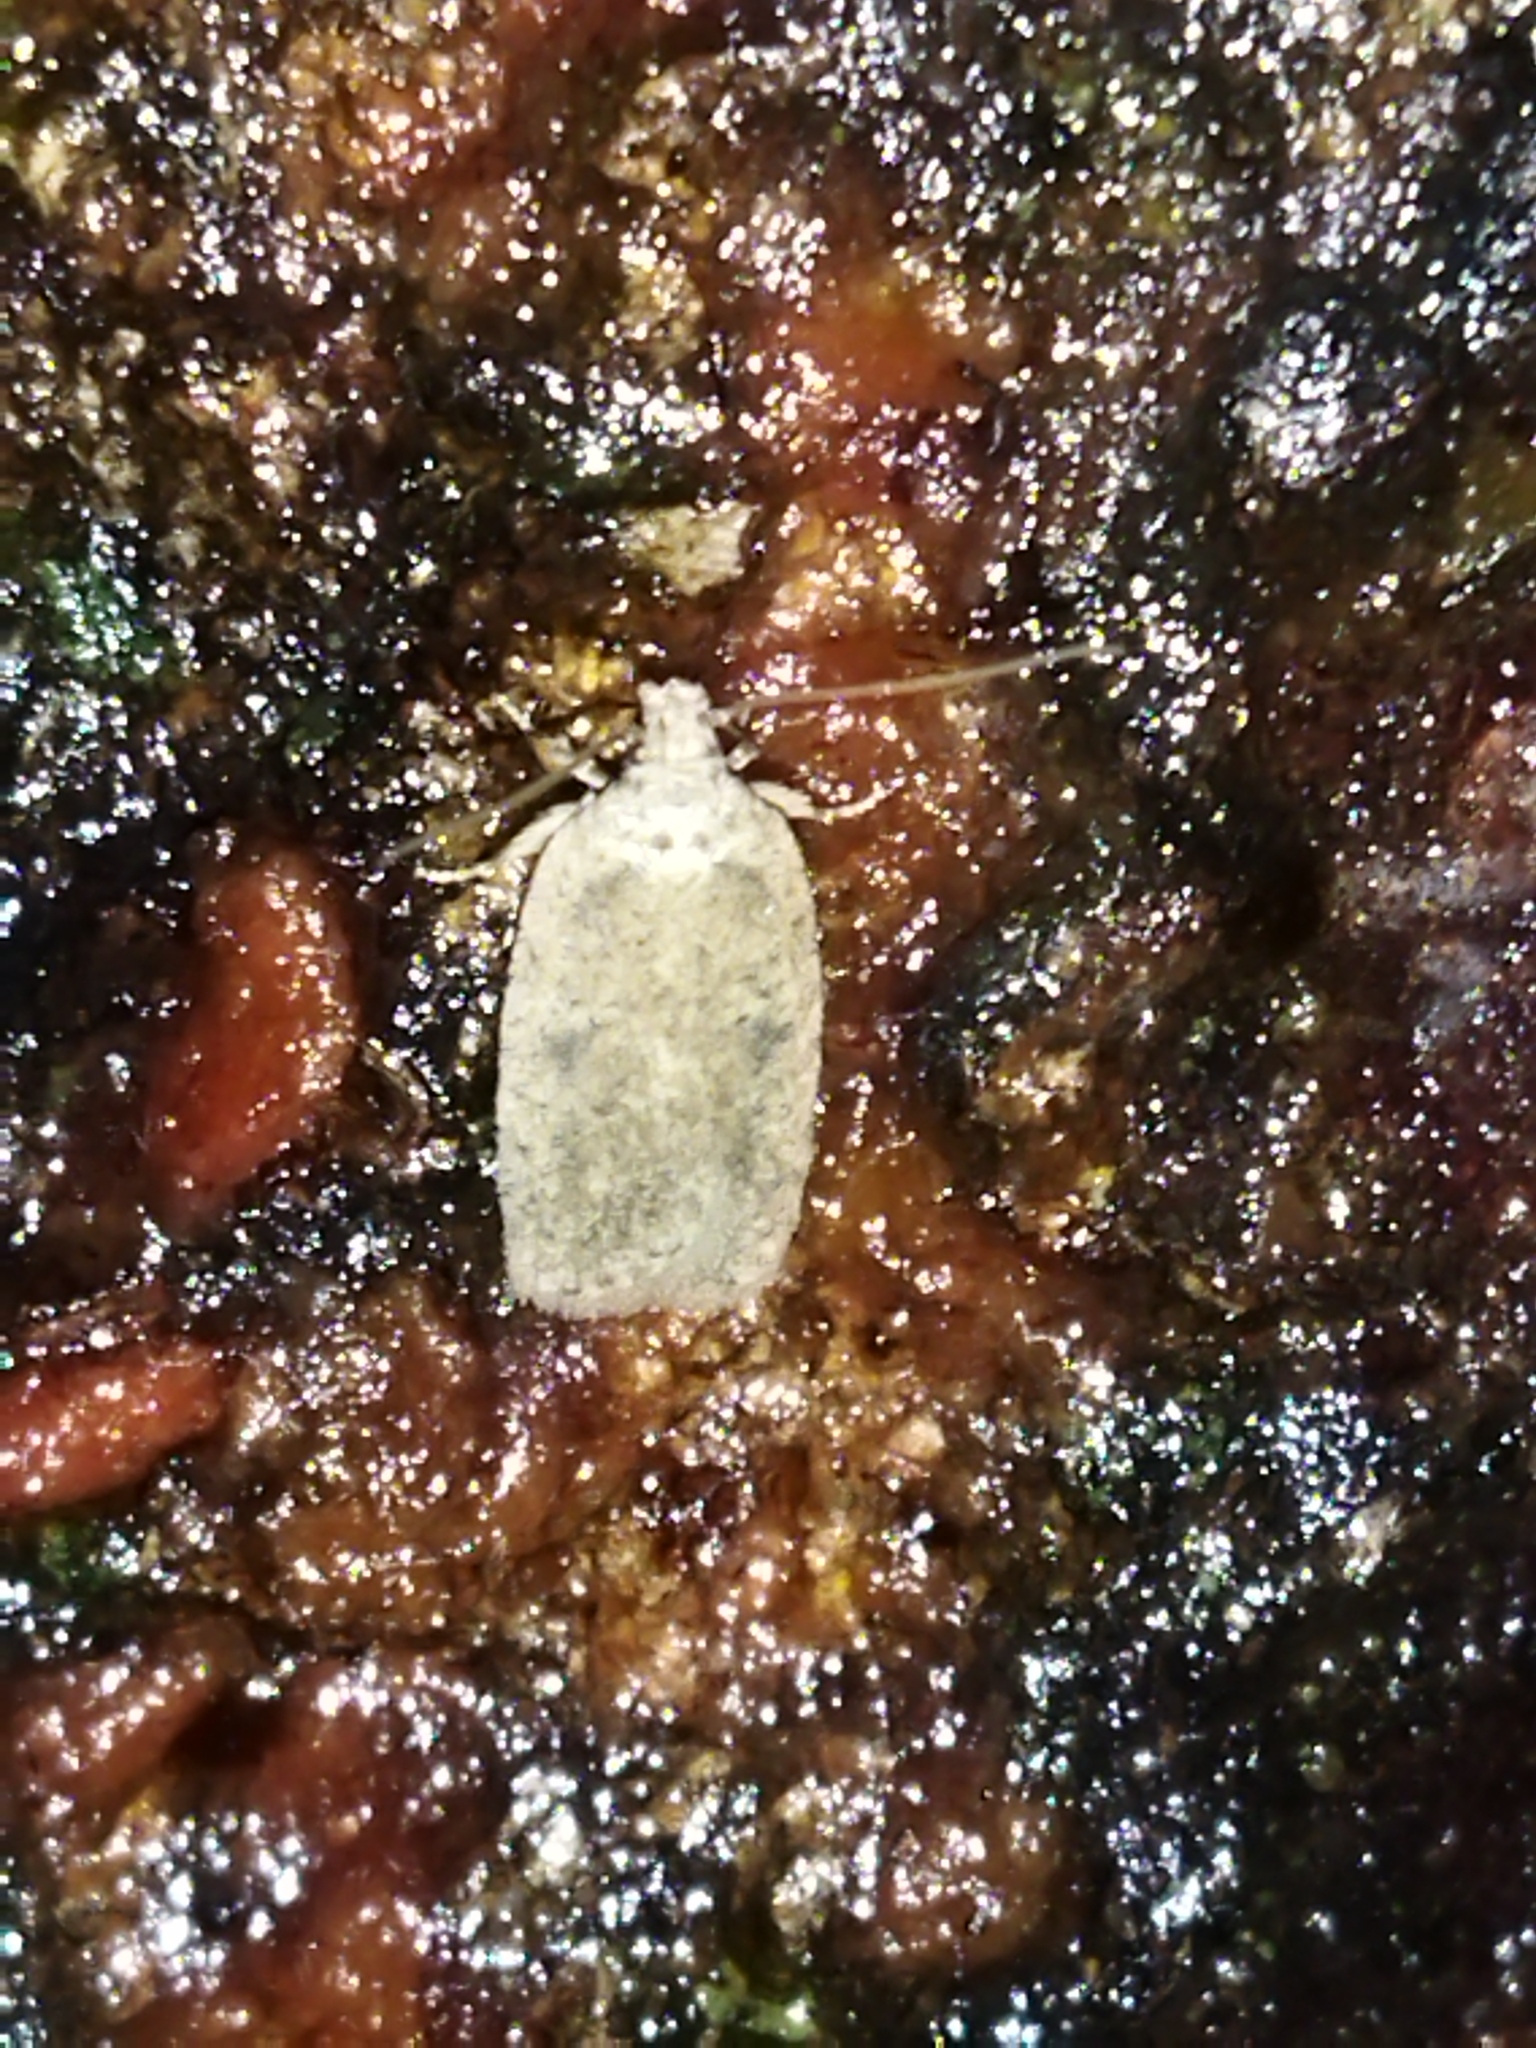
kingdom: Animalia
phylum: Arthropoda
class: Insecta
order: Lepidoptera
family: Depressariidae
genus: Agonopterix
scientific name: Agonopterix arenella
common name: Brindled flat-body
